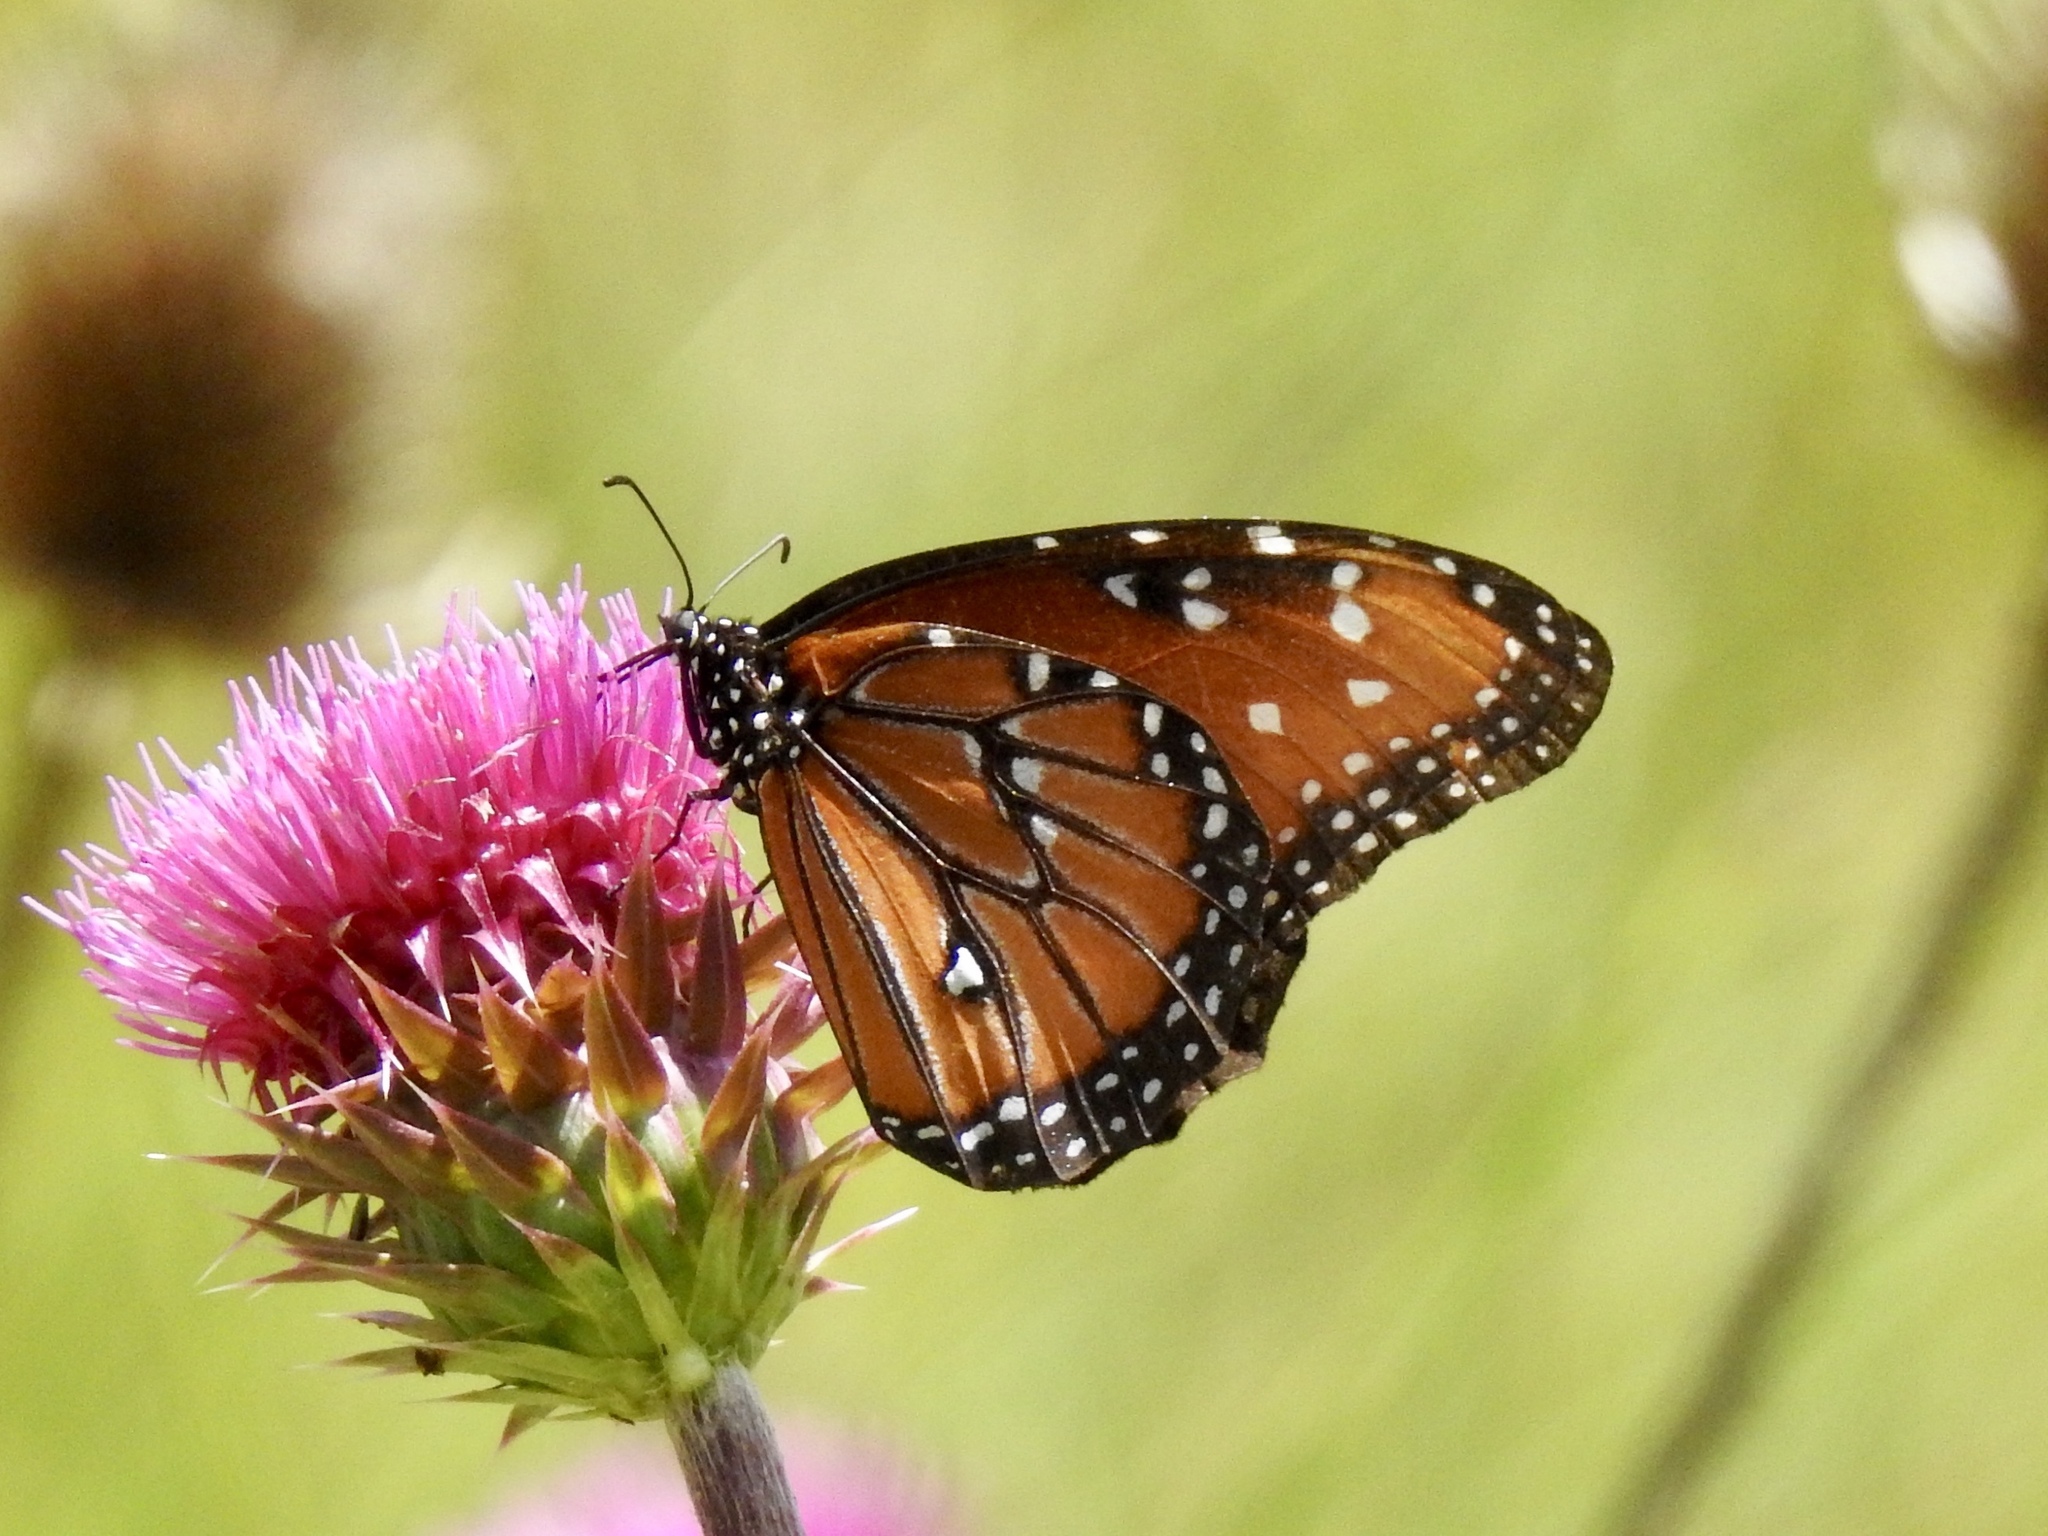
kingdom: Animalia
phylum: Arthropoda
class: Insecta
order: Lepidoptera
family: Nymphalidae
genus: Danaus
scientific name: Danaus gilippus
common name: Queen
